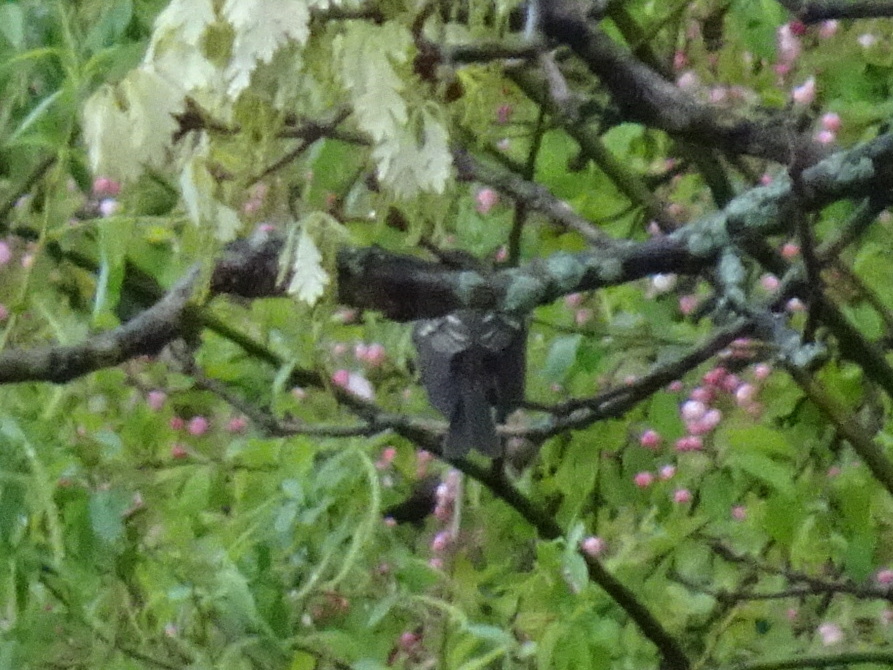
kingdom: Animalia
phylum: Chordata
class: Aves
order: Passeriformes
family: Tyrannidae
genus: Contopus
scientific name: Contopus virens
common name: Eastern wood-pewee
